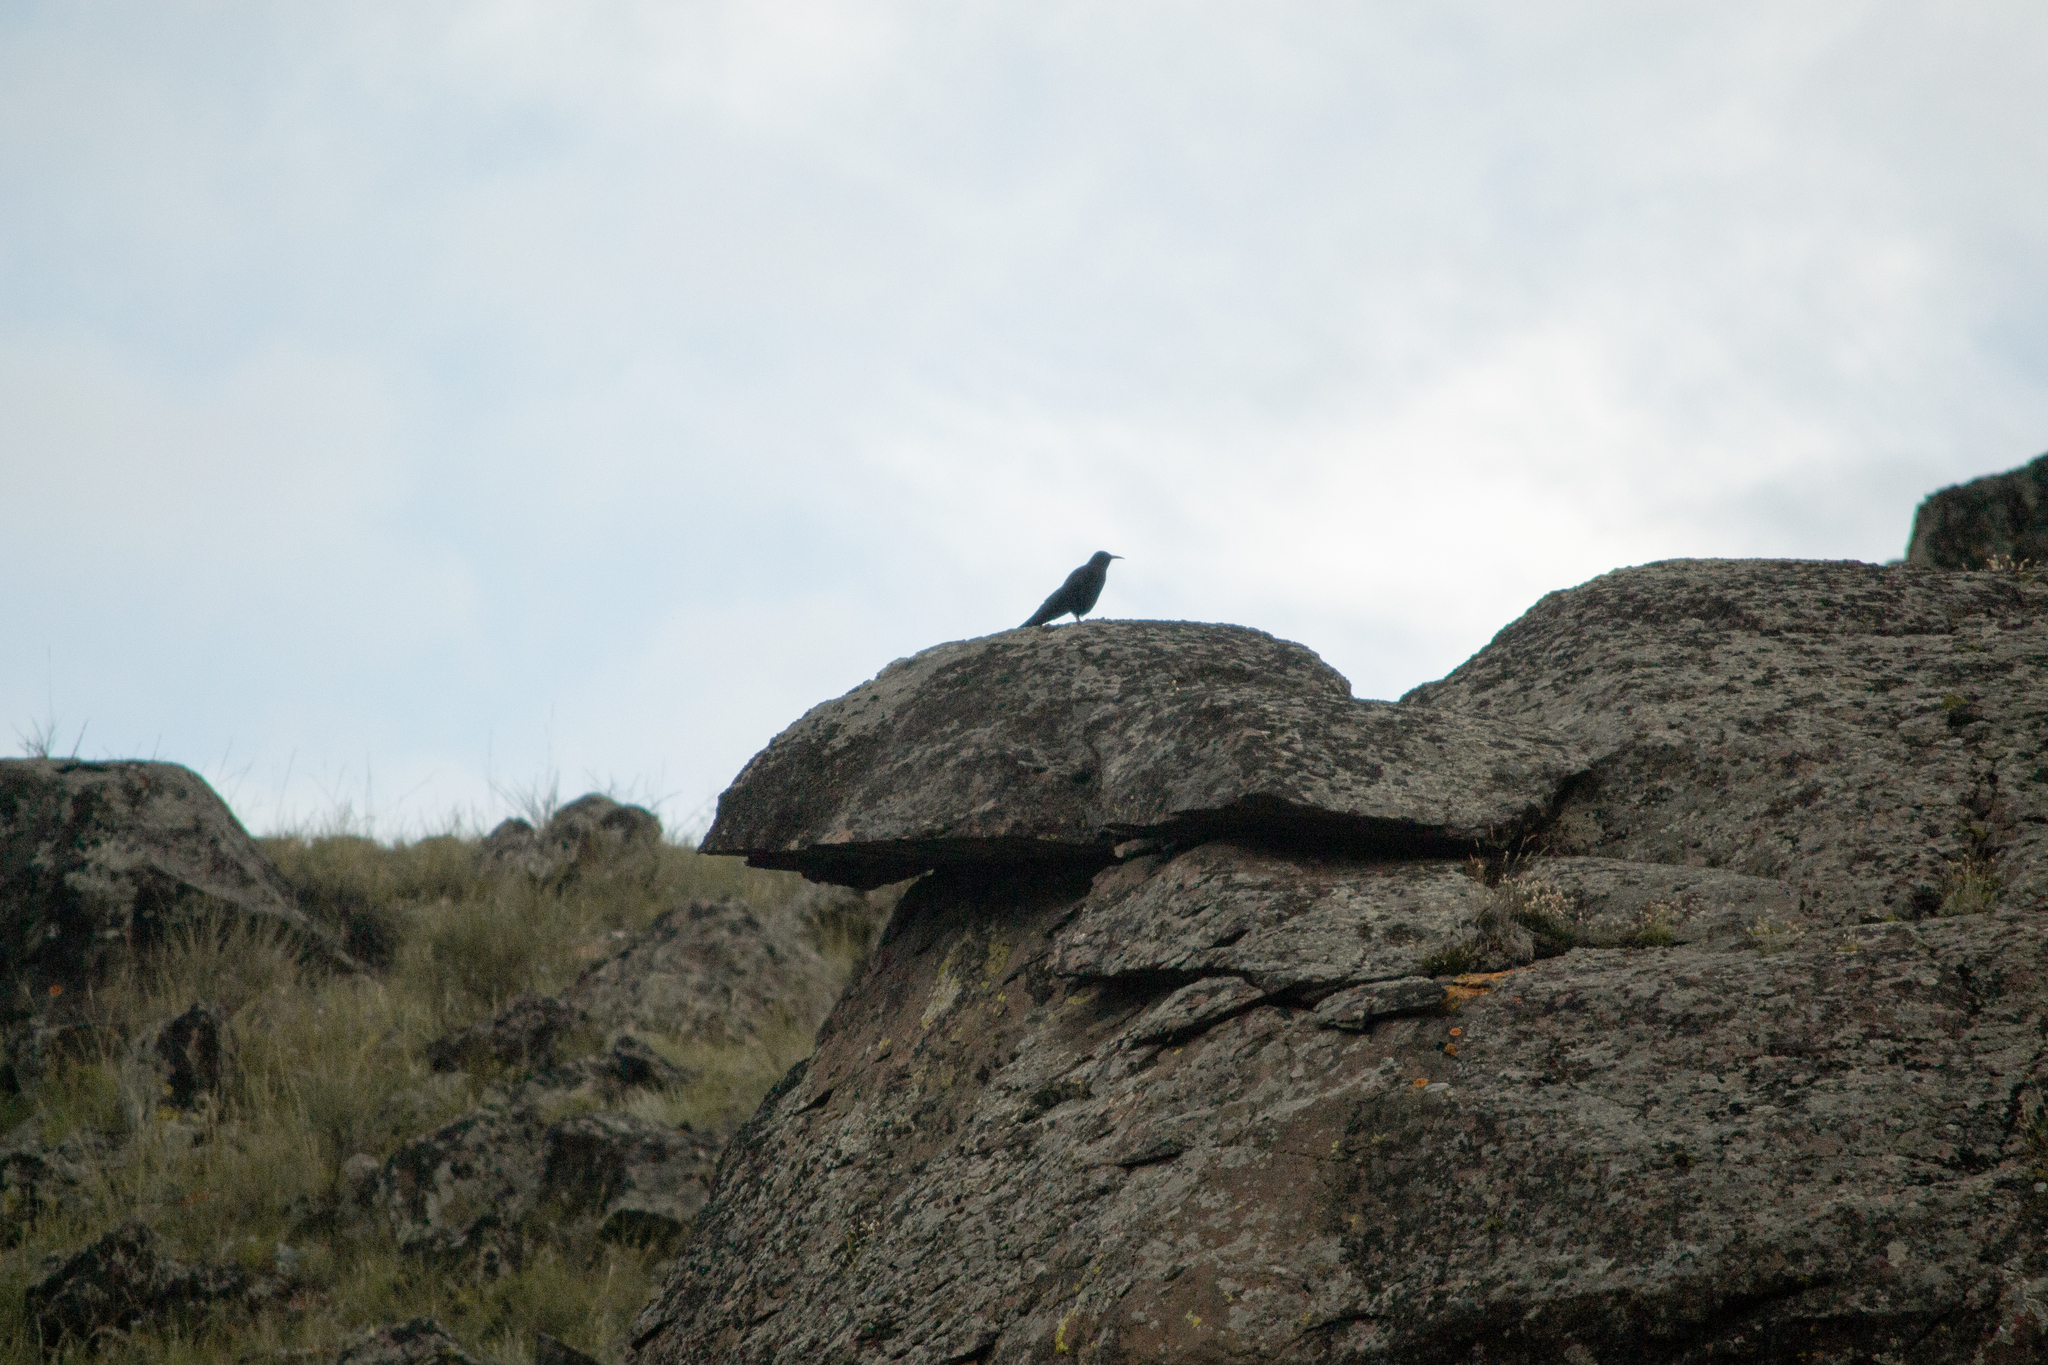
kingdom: Animalia
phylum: Chordata
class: Aves
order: Passeriformes
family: Corvidae
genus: Pyrrhocorax
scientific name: Pyrrhocorax pyrrhocorax
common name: Red-billed chough
